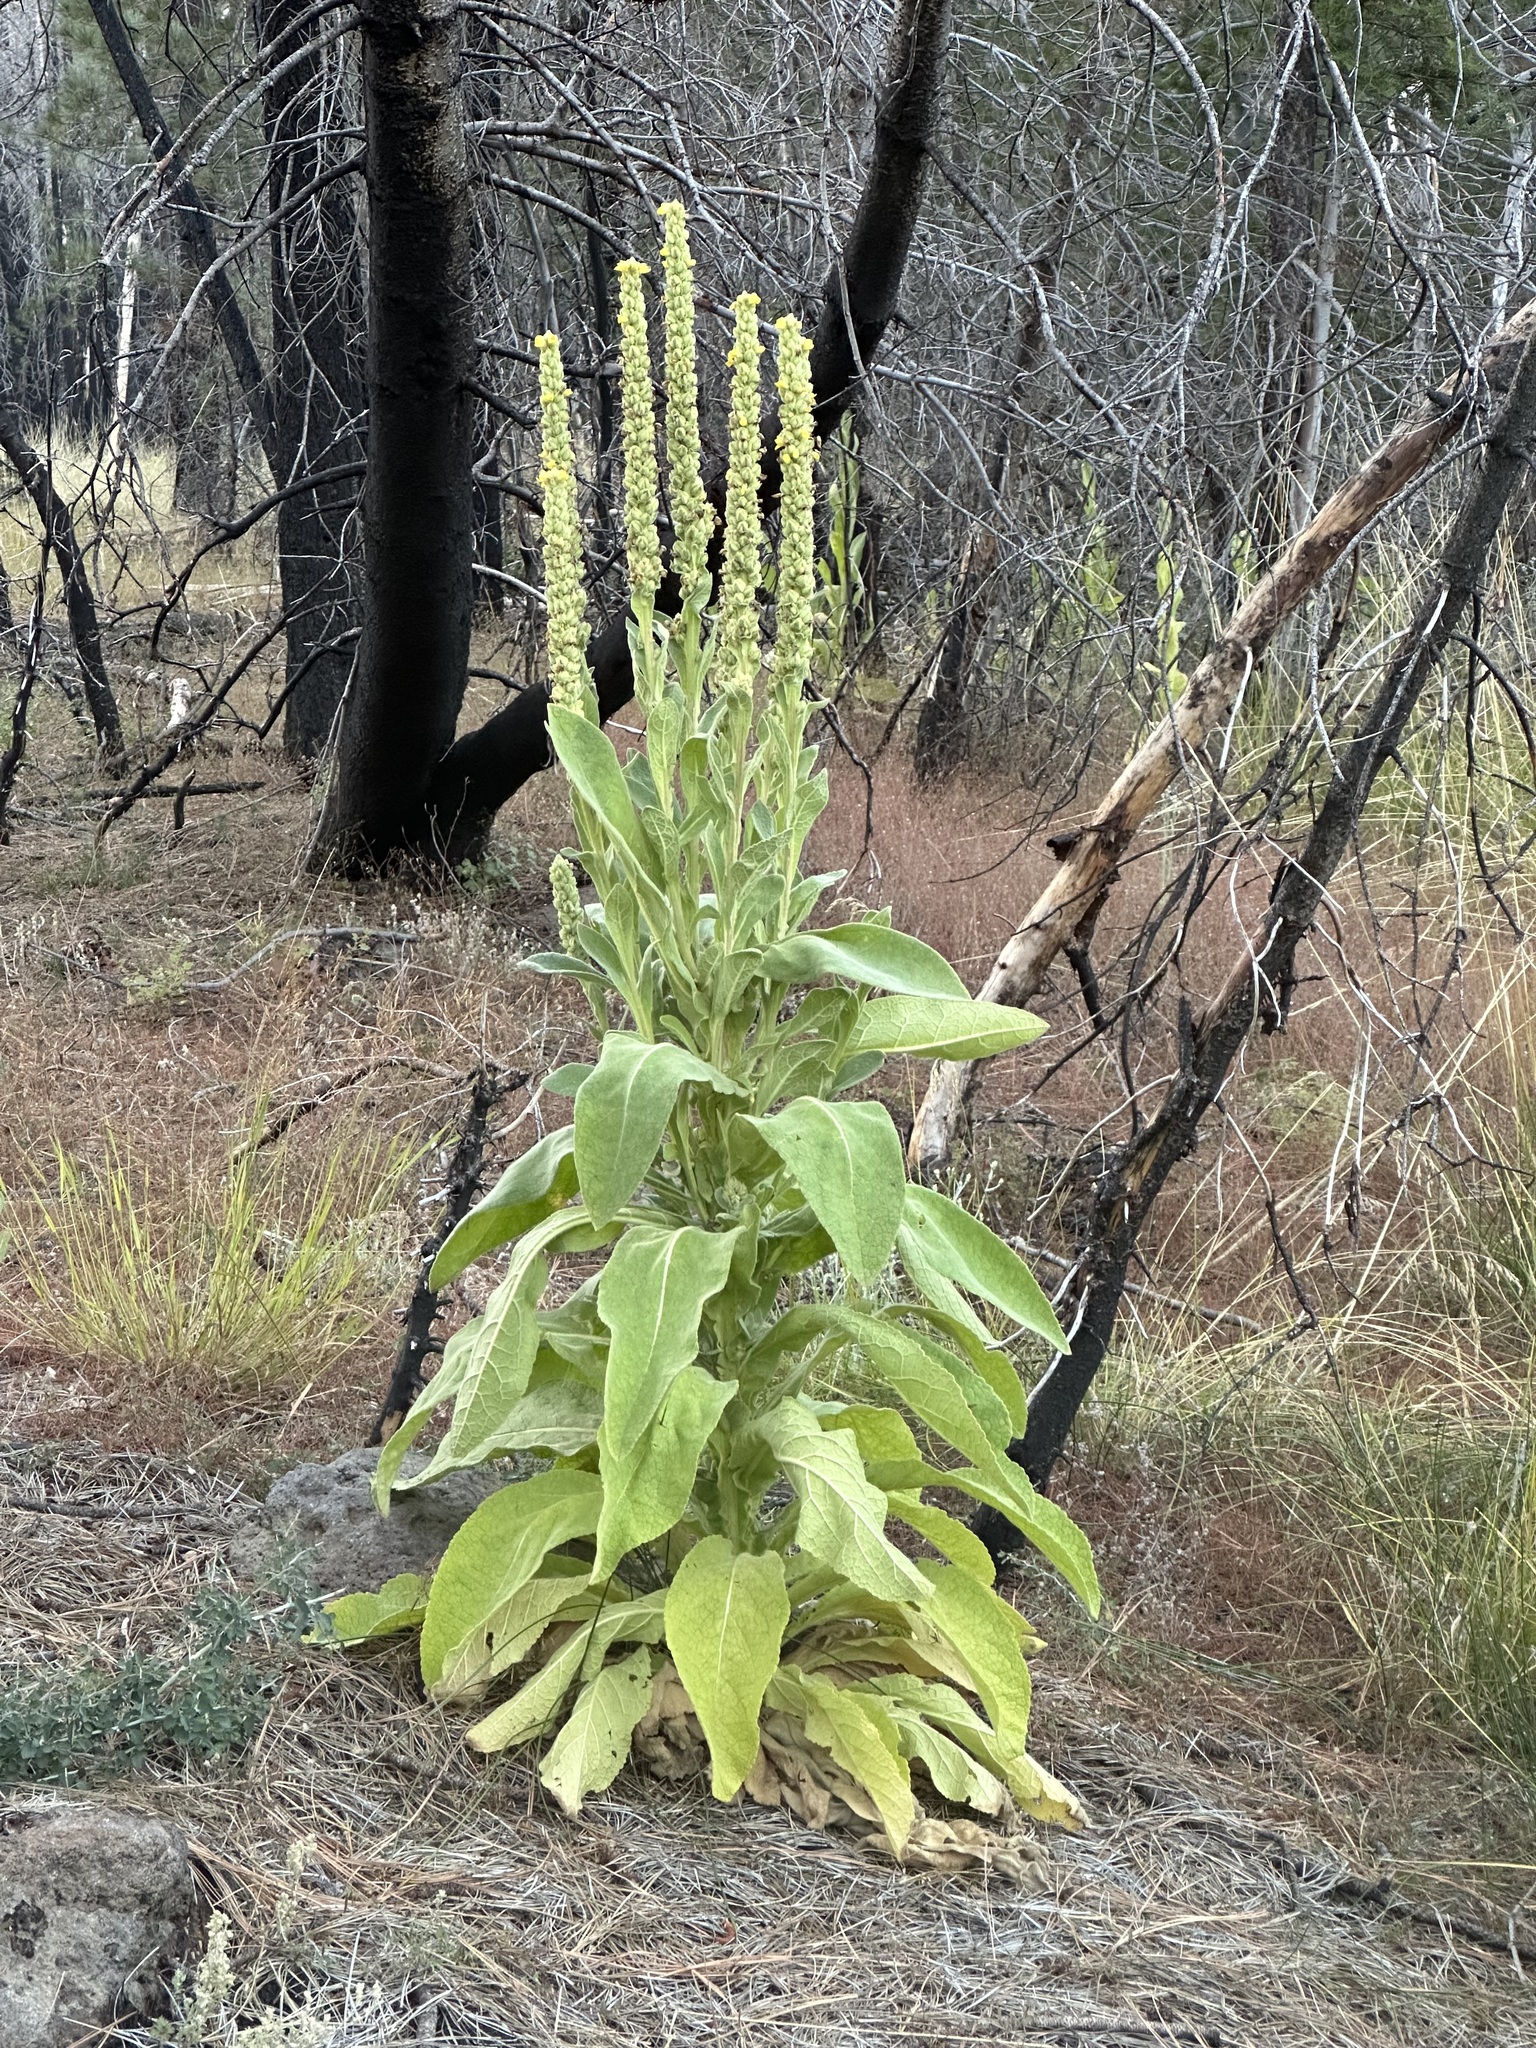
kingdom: Plantae
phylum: Tracheophyta
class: Magnoliopsida
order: Lamiales
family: Scrophulariaceae
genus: Verbascum
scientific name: Verbascum thapsus
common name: Common mullein
